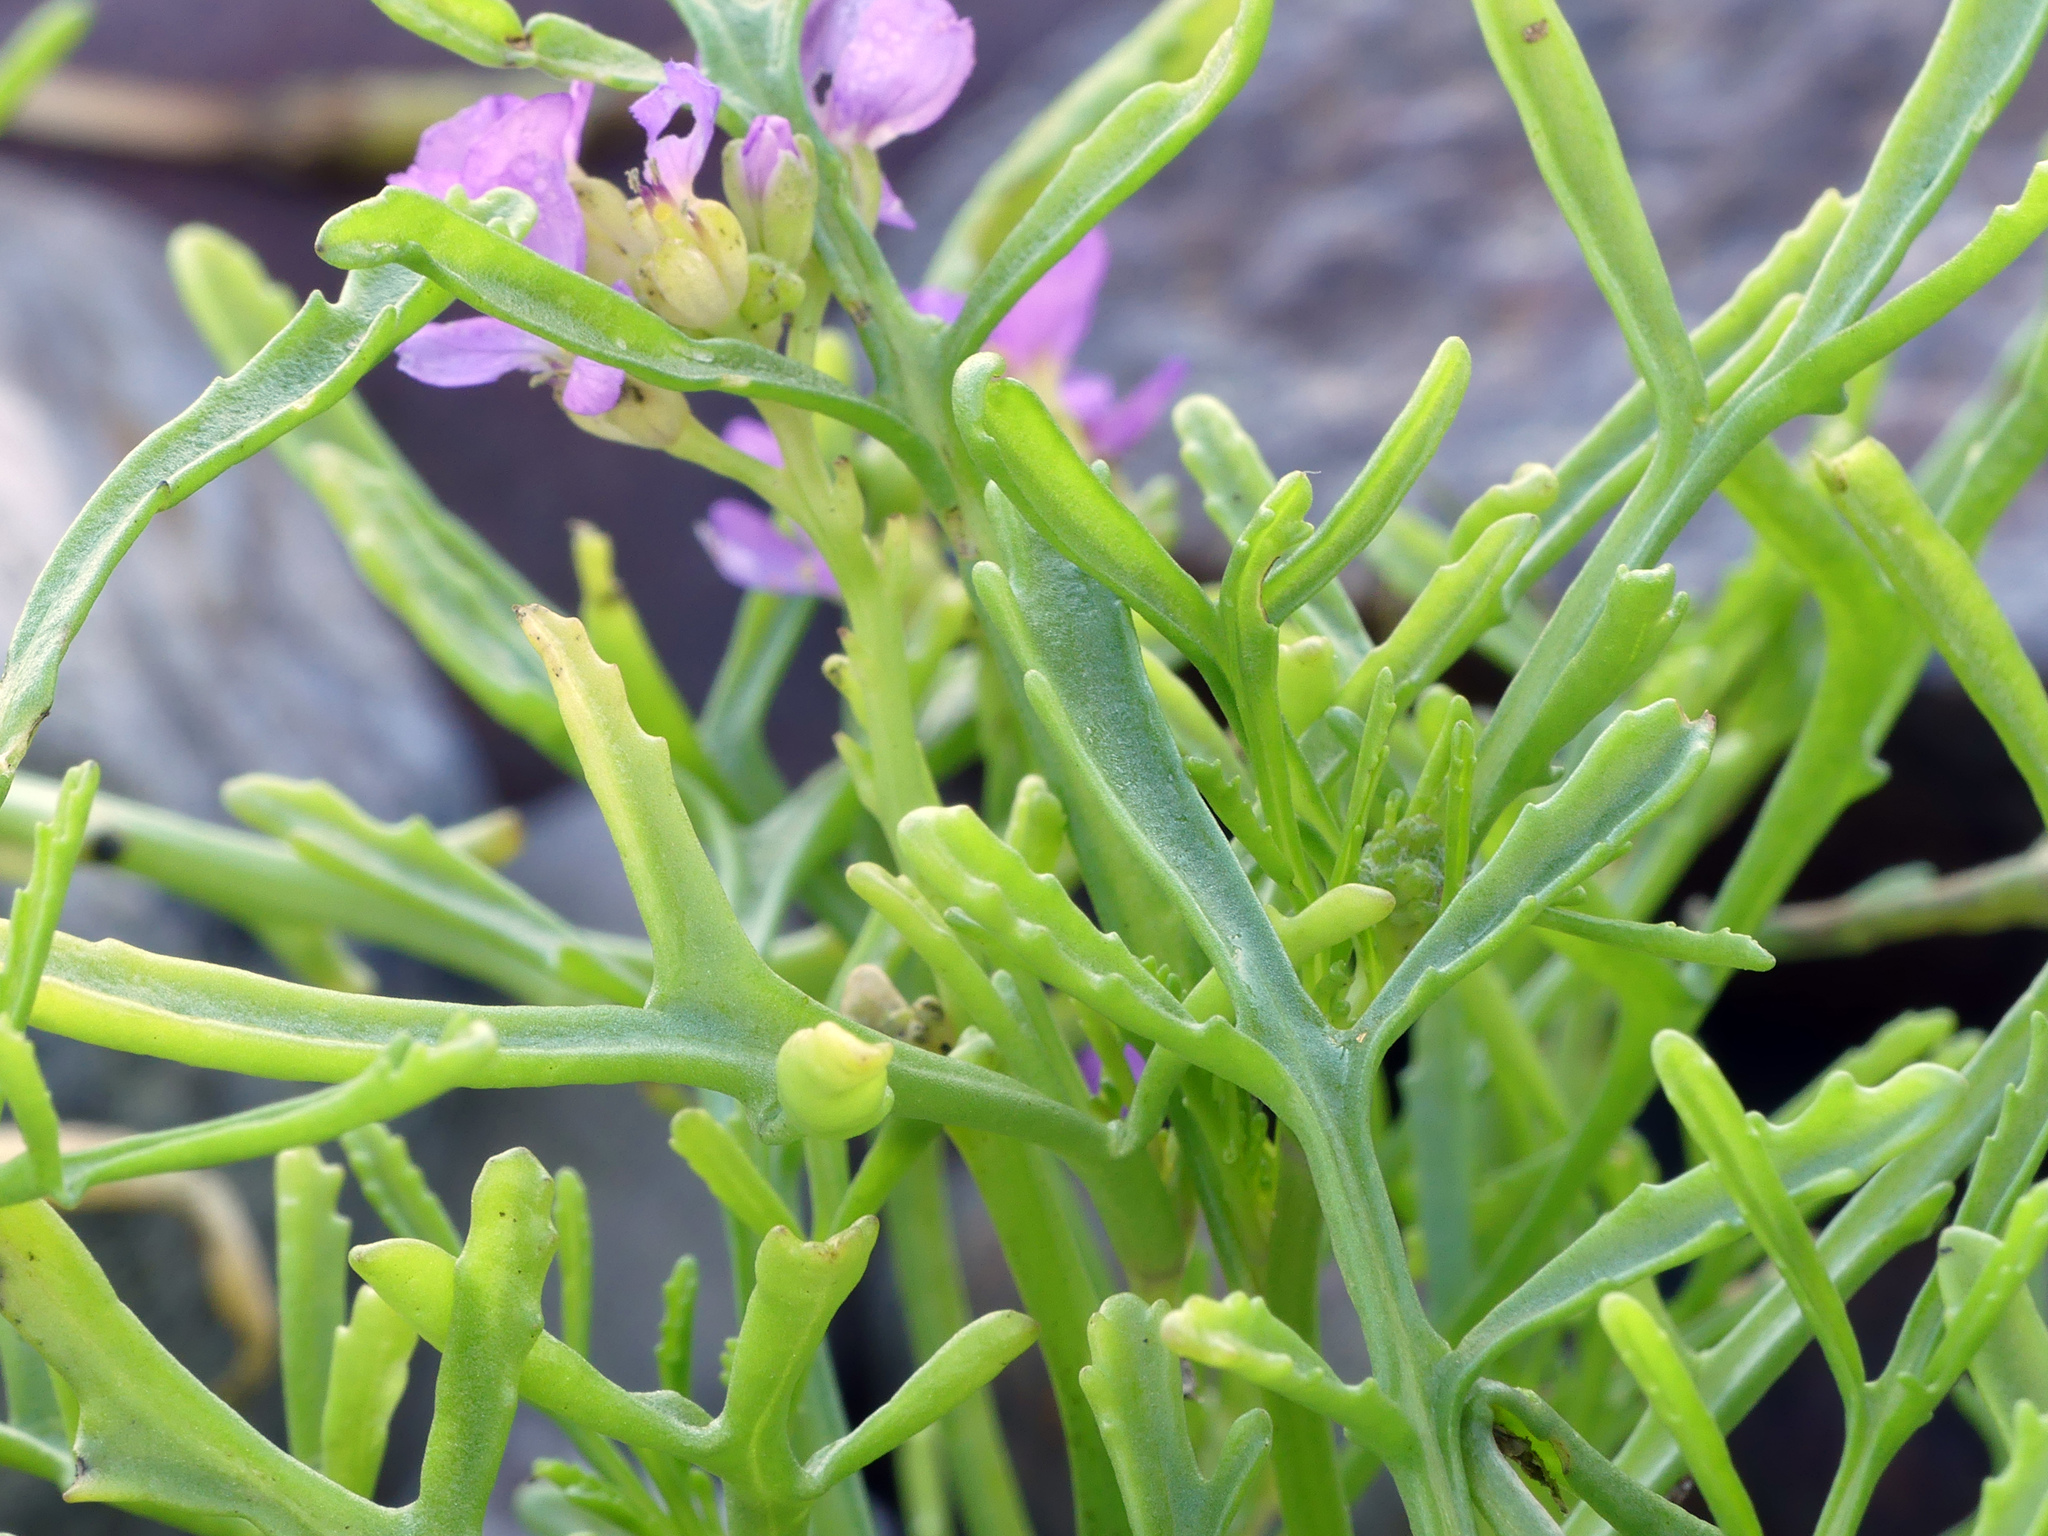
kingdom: Plantae
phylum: Tracheophyta
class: Magnoliopsida
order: Brassicales
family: Brassicaceae
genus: Cakile
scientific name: Cakile maritima
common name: Sea rocket
